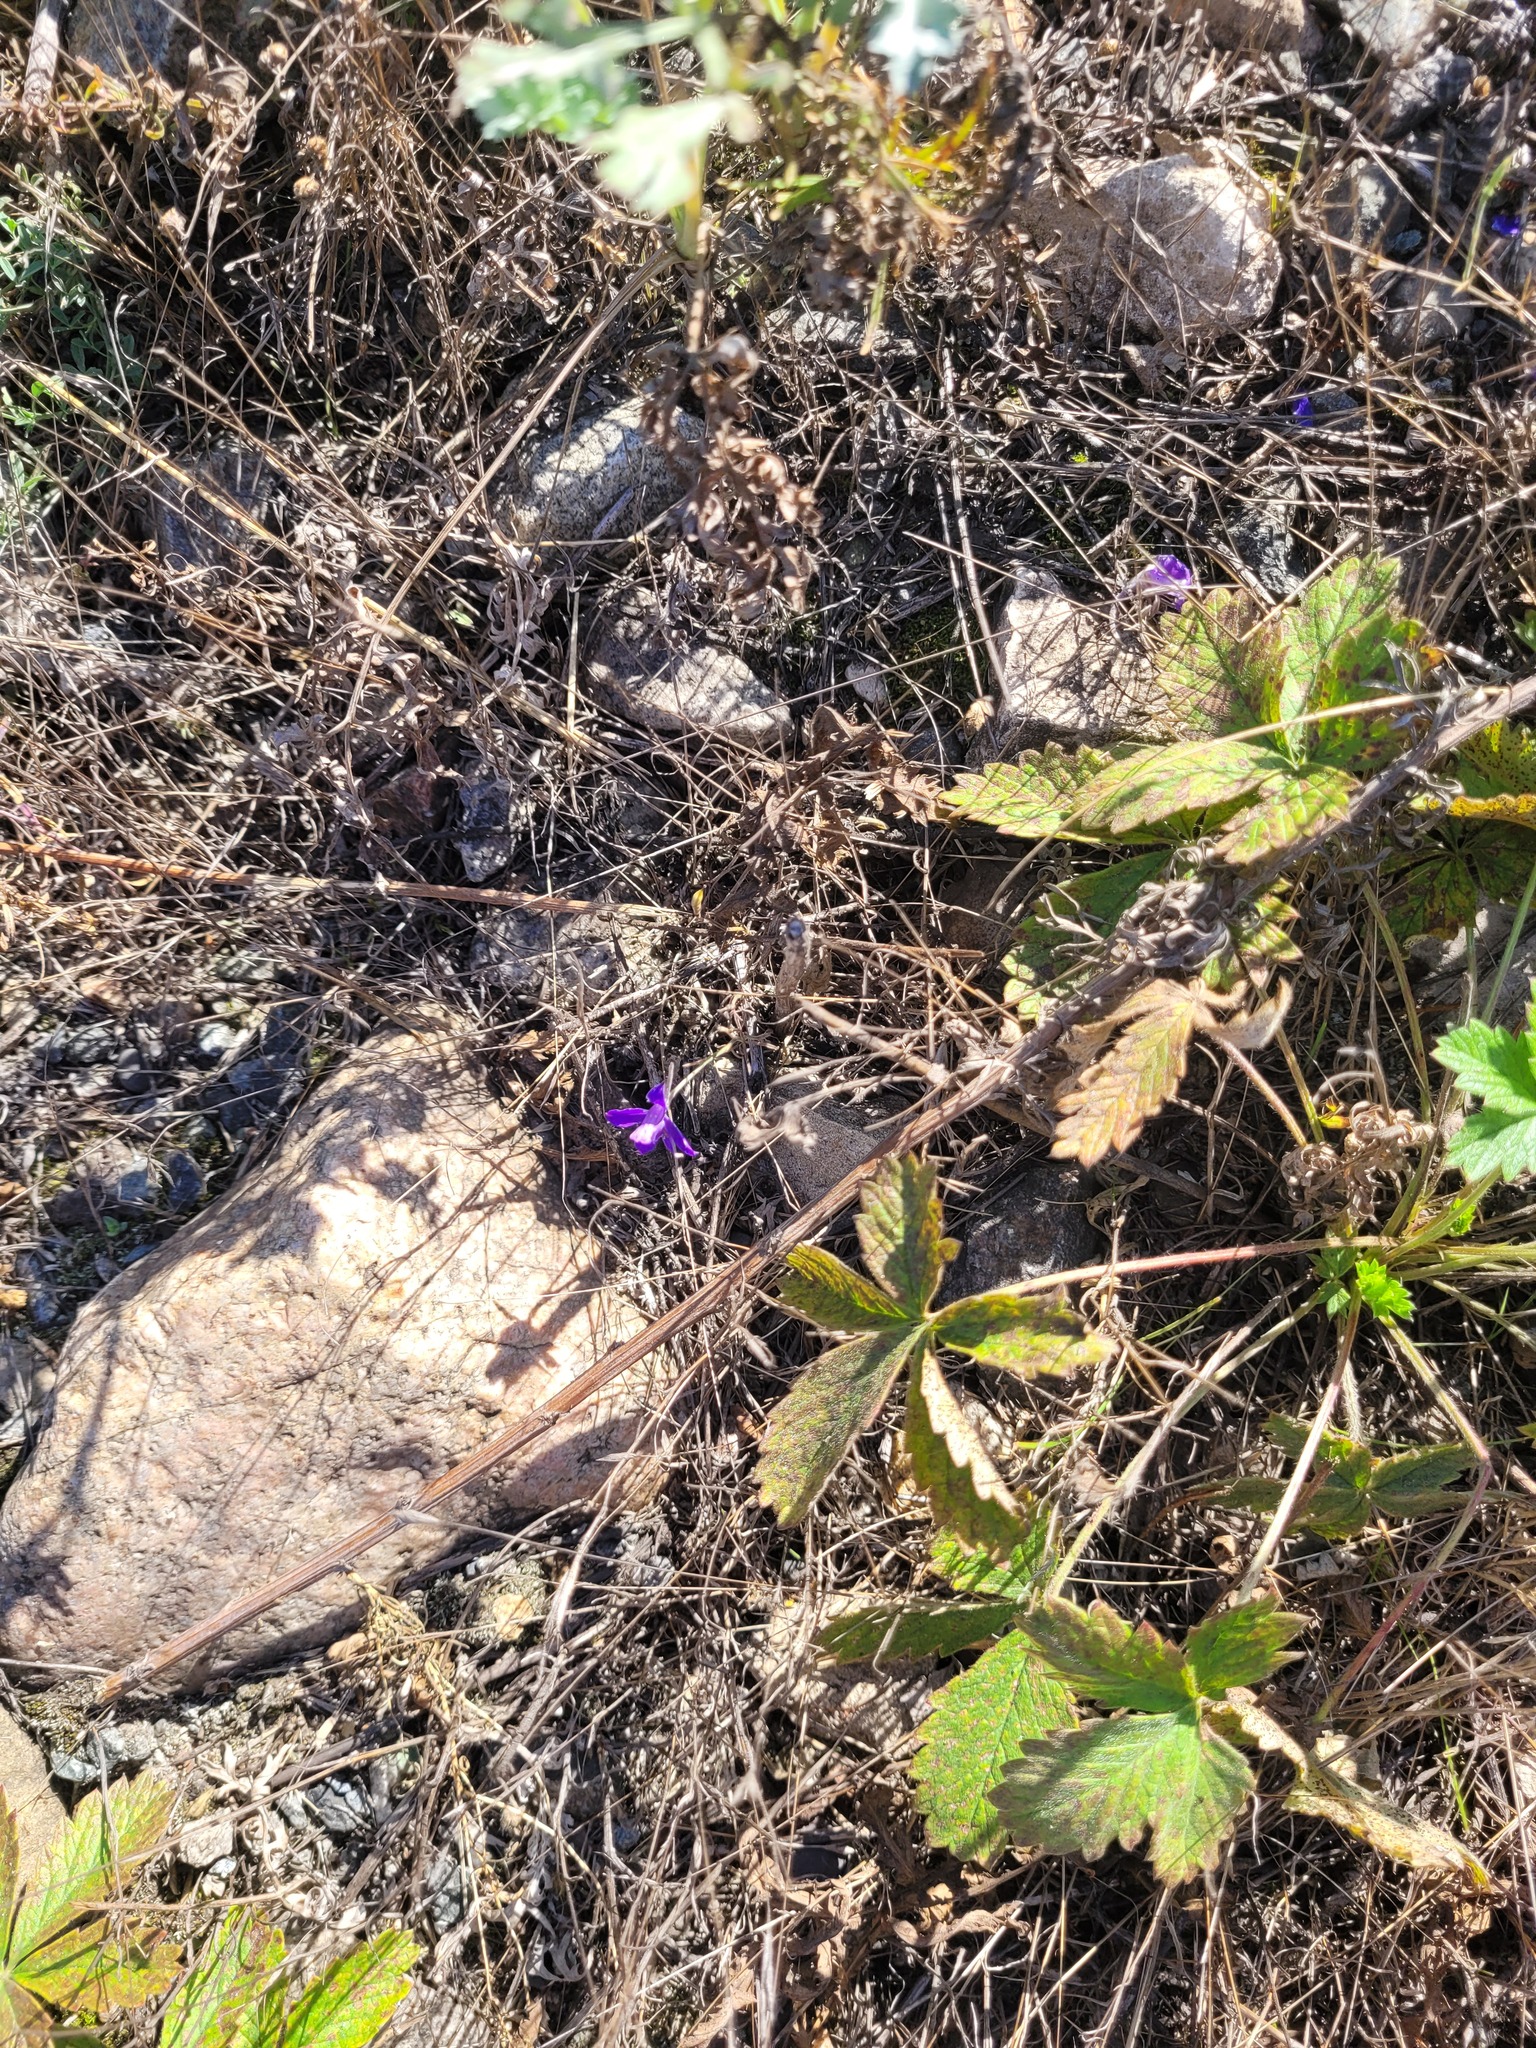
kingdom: Plantae
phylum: Tracheophyta
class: Magnoliopsida
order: Ranunculales
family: Ranunculaceae
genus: Delphinium
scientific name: Delphinium consolida
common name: Branching larkspur
